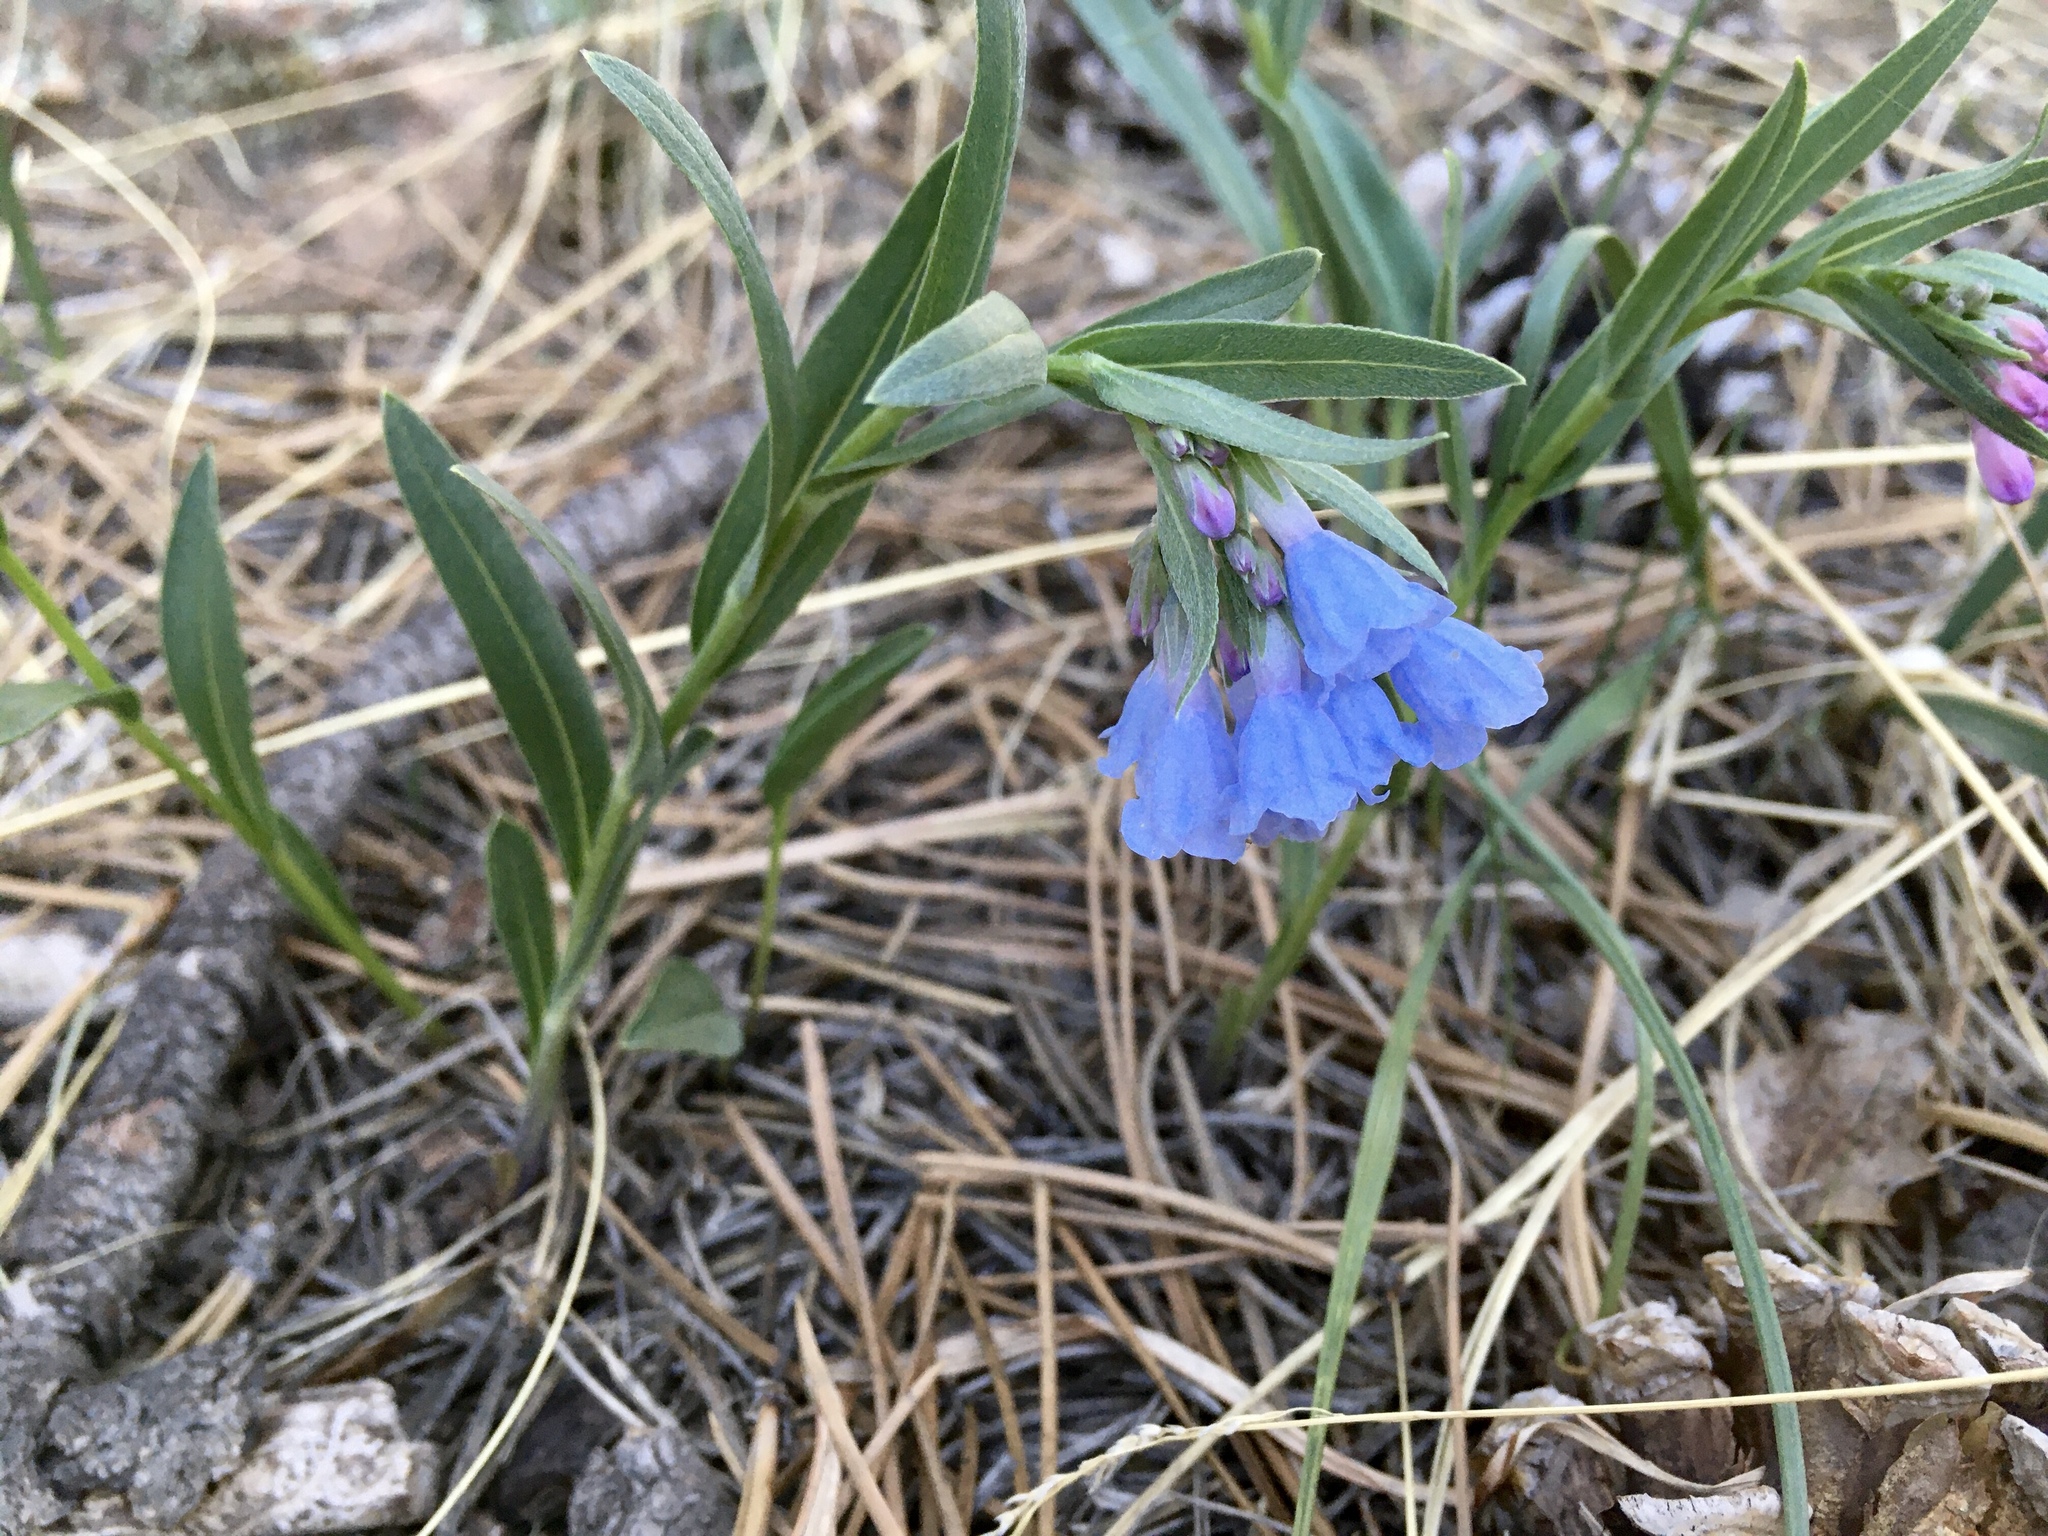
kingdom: Plantae
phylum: Tracheophyta
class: Magnoliopsida
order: Boraginales
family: Boraginaceae
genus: Mertensia
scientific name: Mertensia lanceolata
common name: Lance-leaved bluebells
